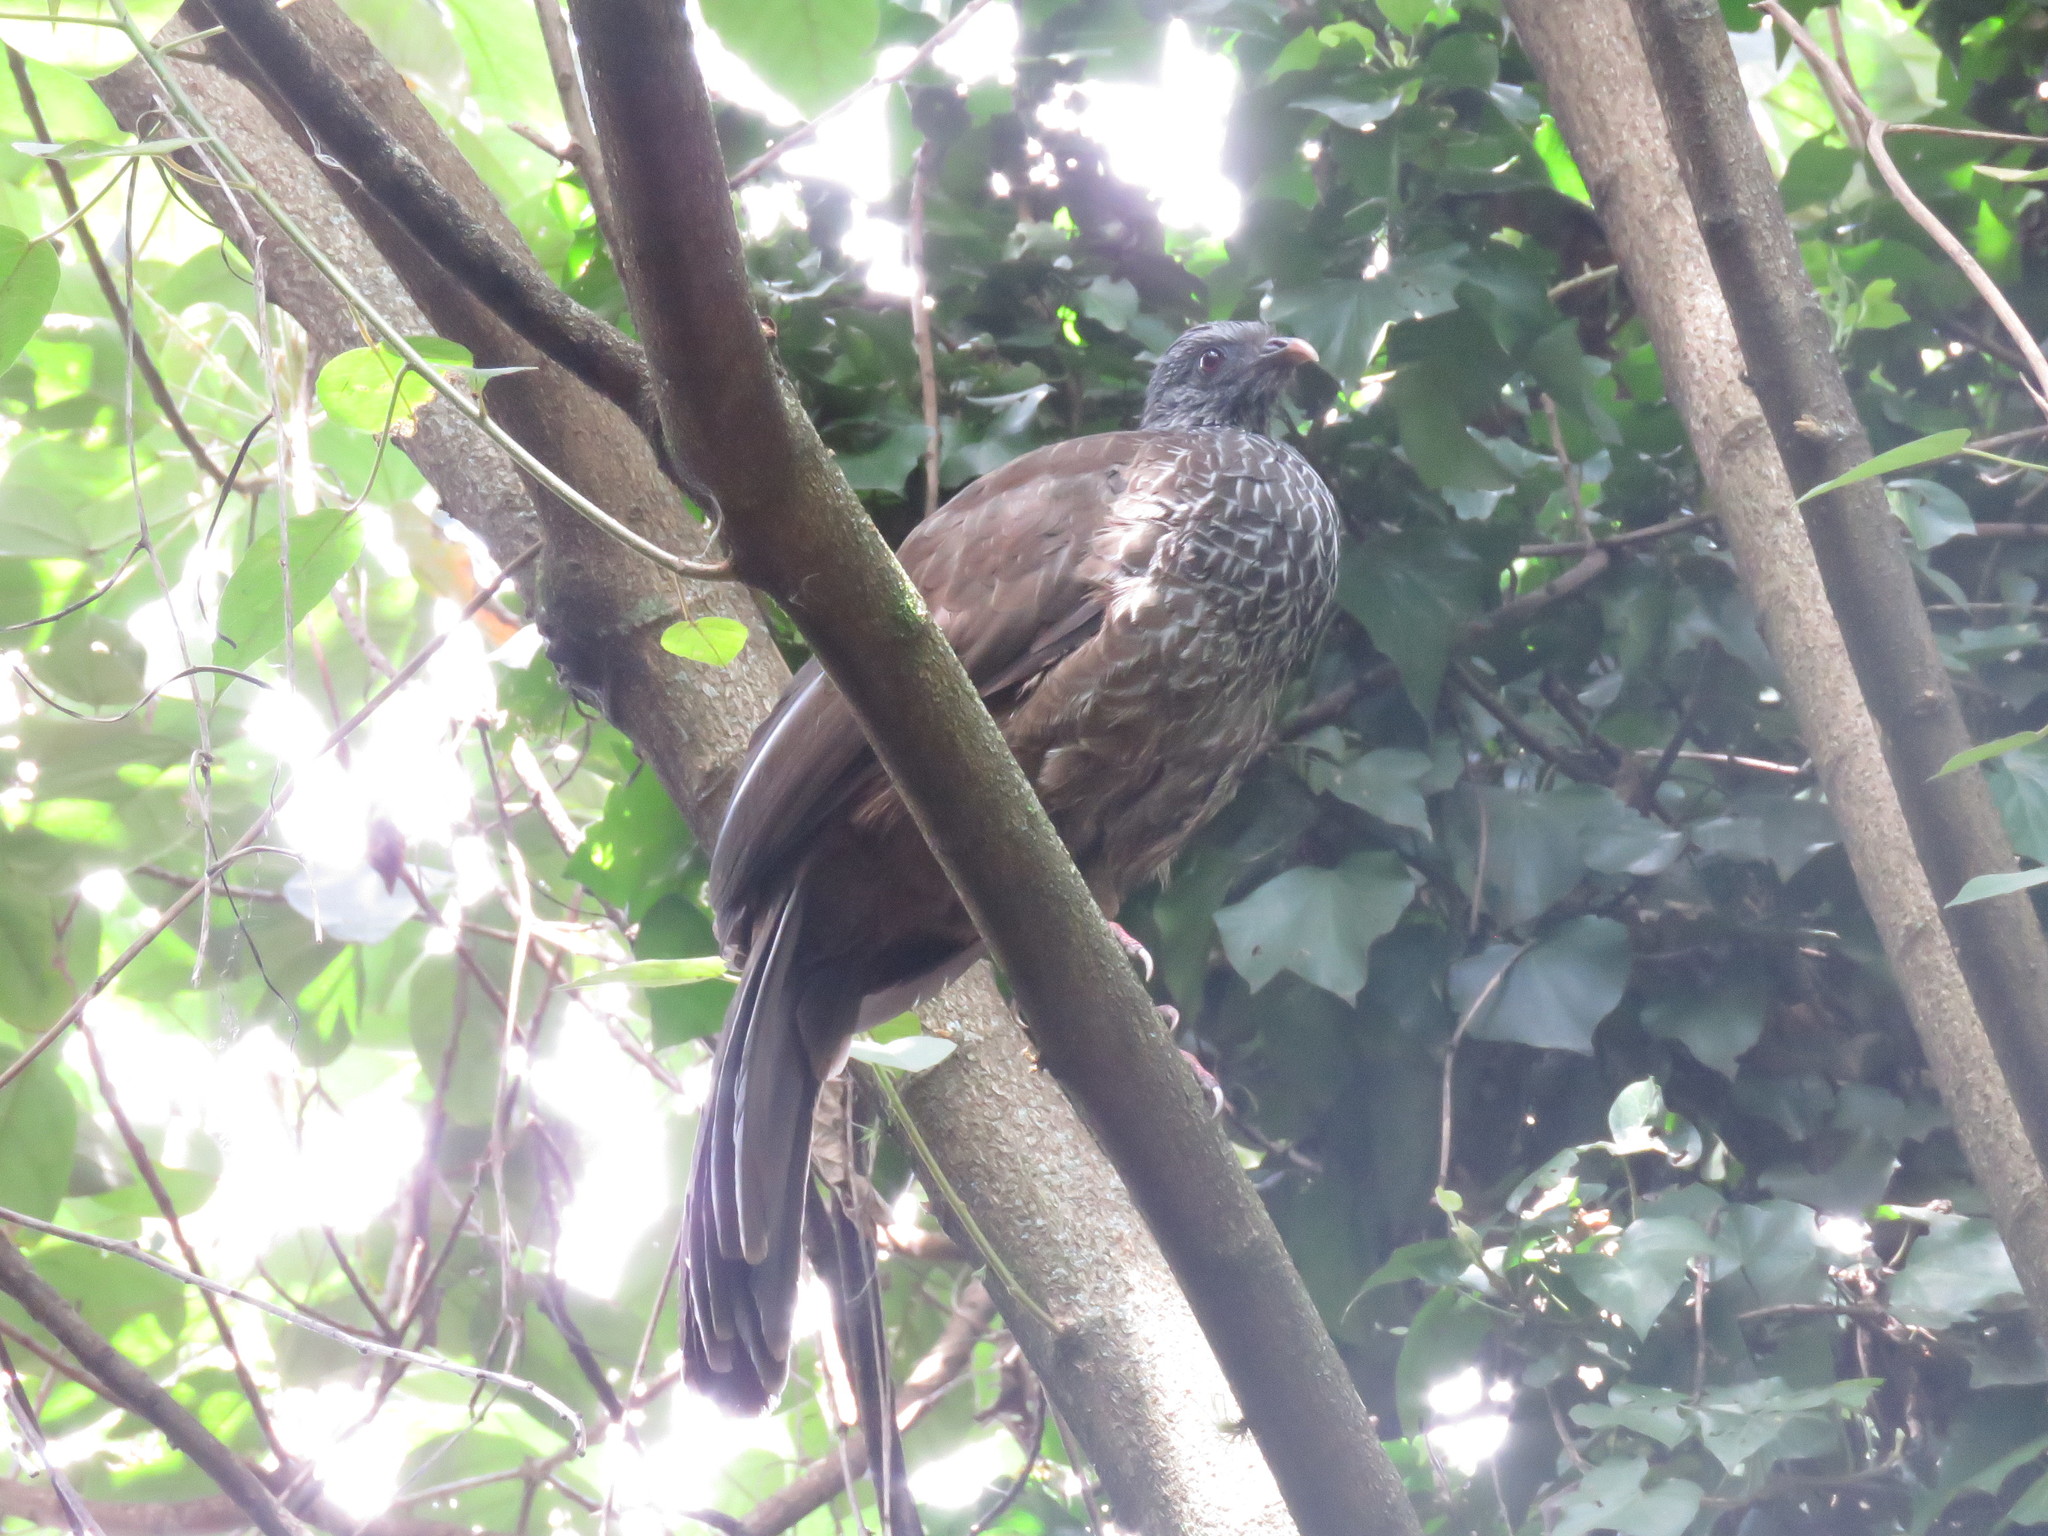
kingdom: Animalia
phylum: Chordata
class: Aves
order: Galliformes
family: Cracidae
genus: Penelope
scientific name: Penelope montagnii
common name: Andean guan
